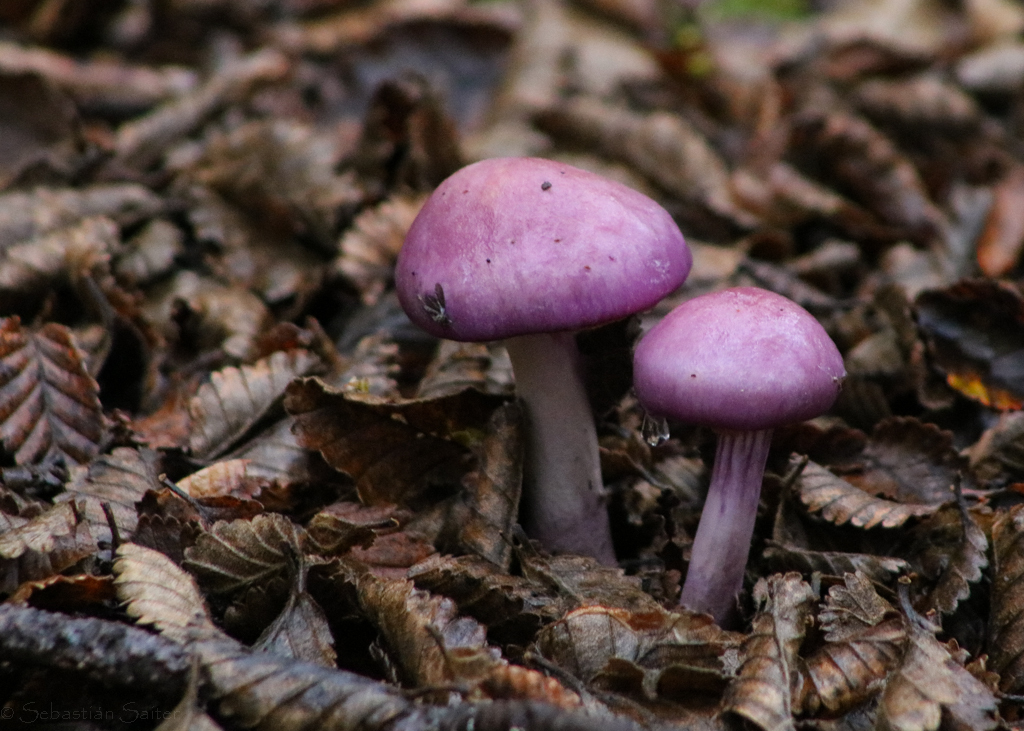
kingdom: Fungi
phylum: Basidiomycota
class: Agaricomycetes
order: Agaricales
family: Cortinariaceae
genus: Cortinarius
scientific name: Cortinarius magellanicus
